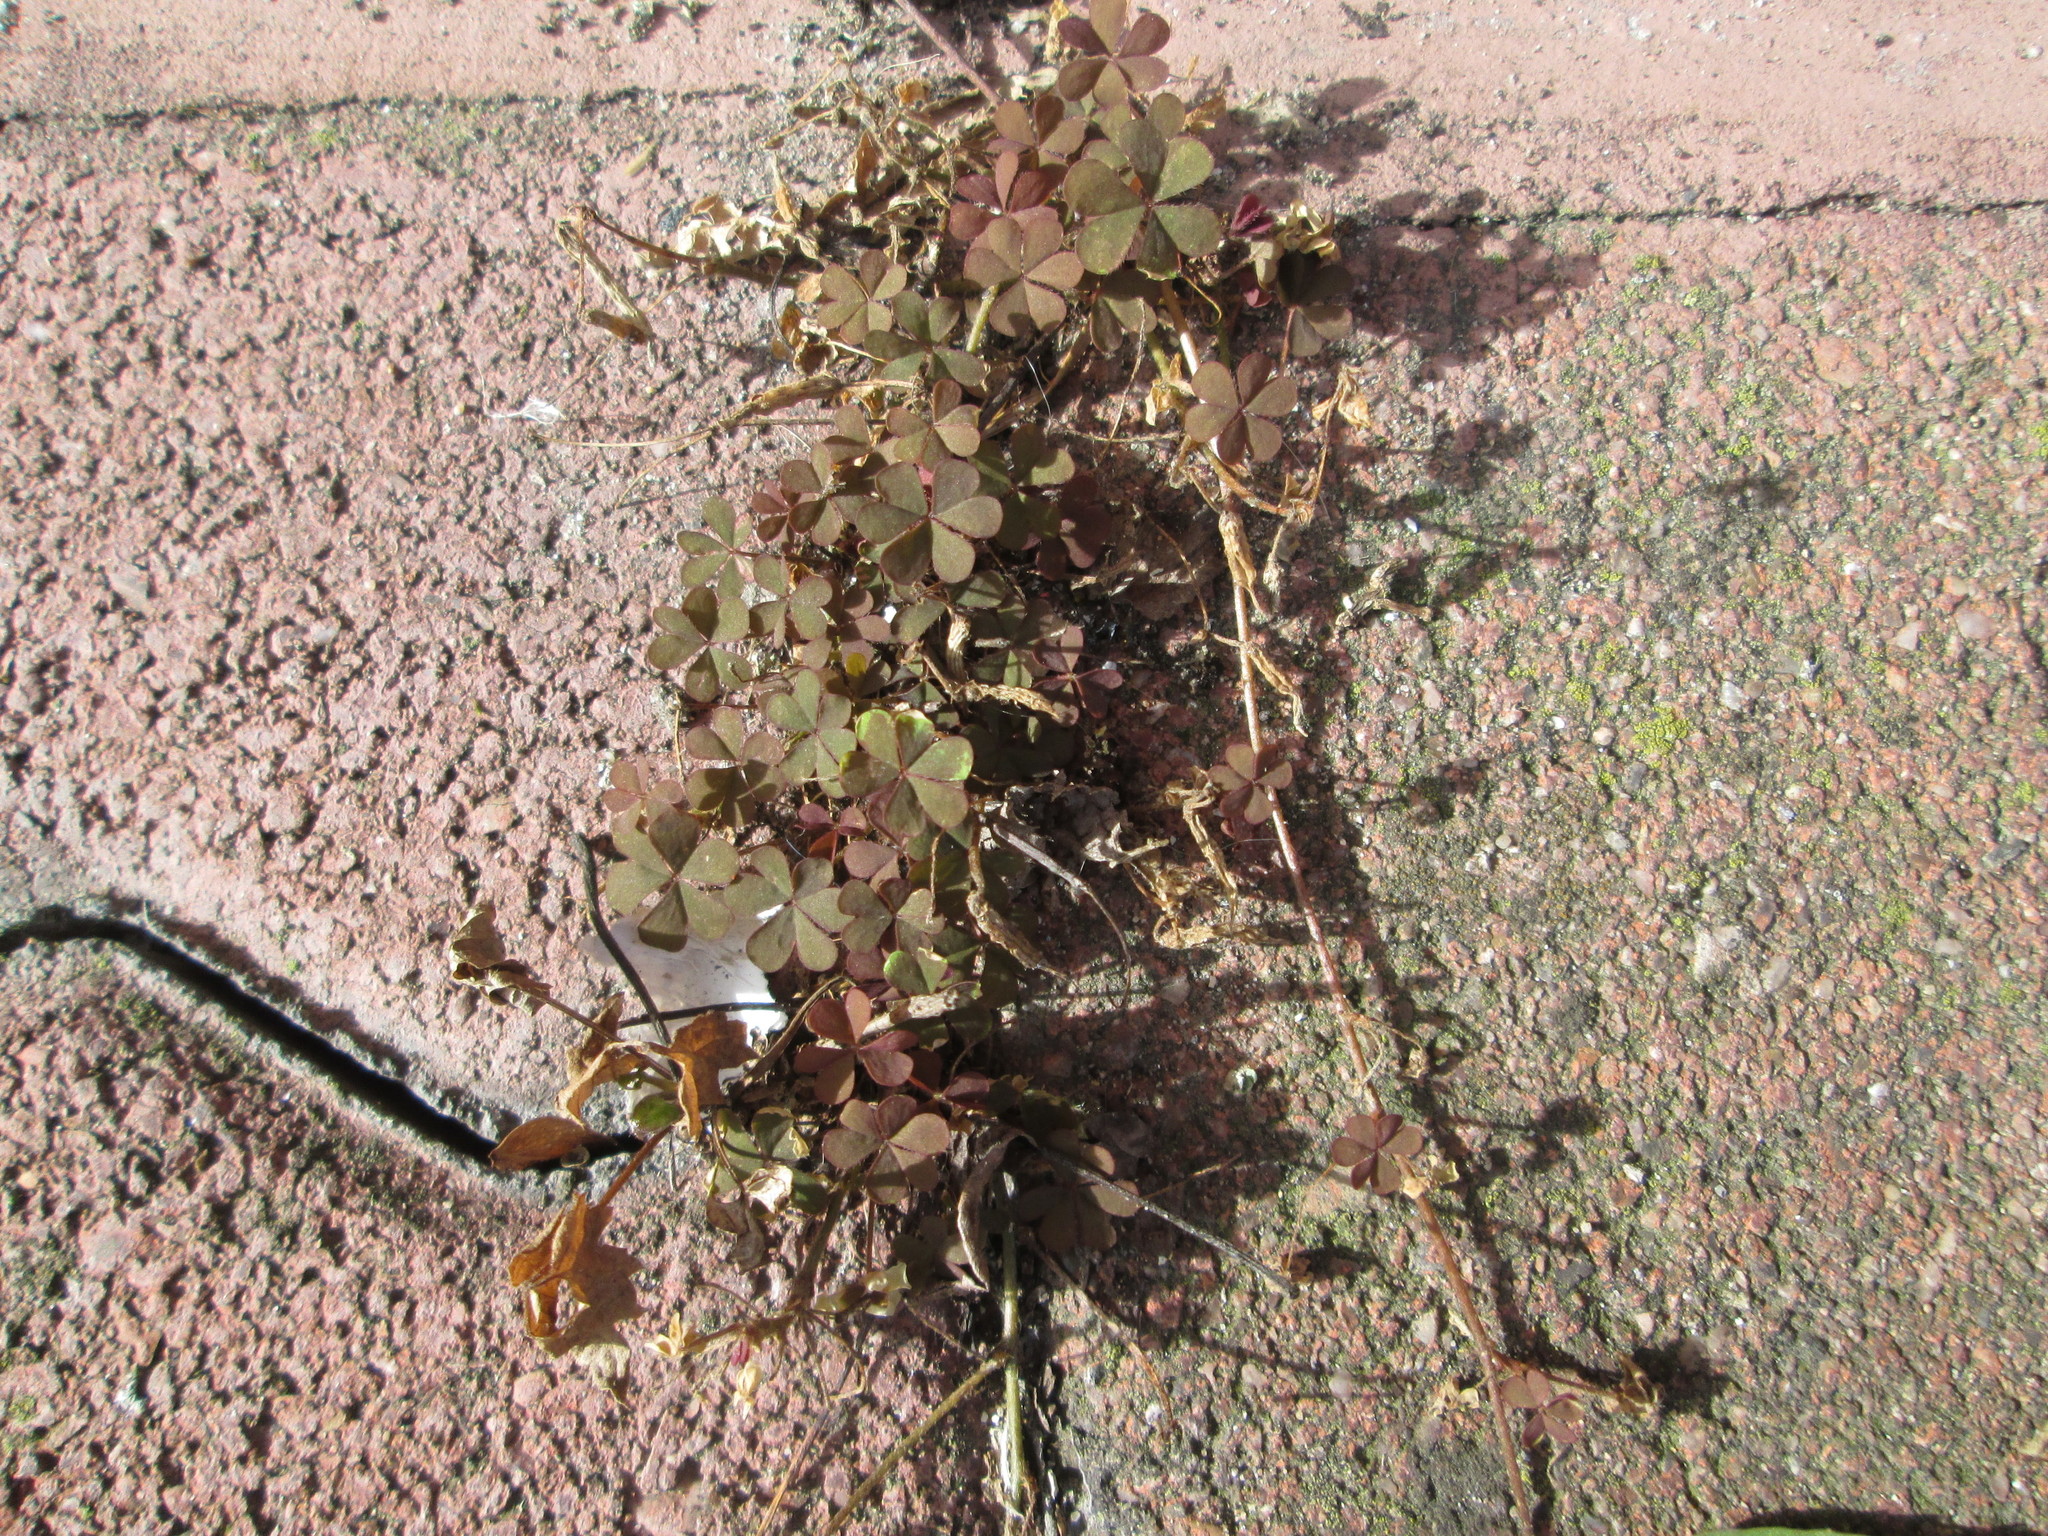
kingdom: Plantae
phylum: Tracheophyta
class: Magnoliopsida
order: Oxalidales
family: Oxalidaceae
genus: Oxalis
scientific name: Oxalis corniculata
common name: Procumbent yellow-sorrel
